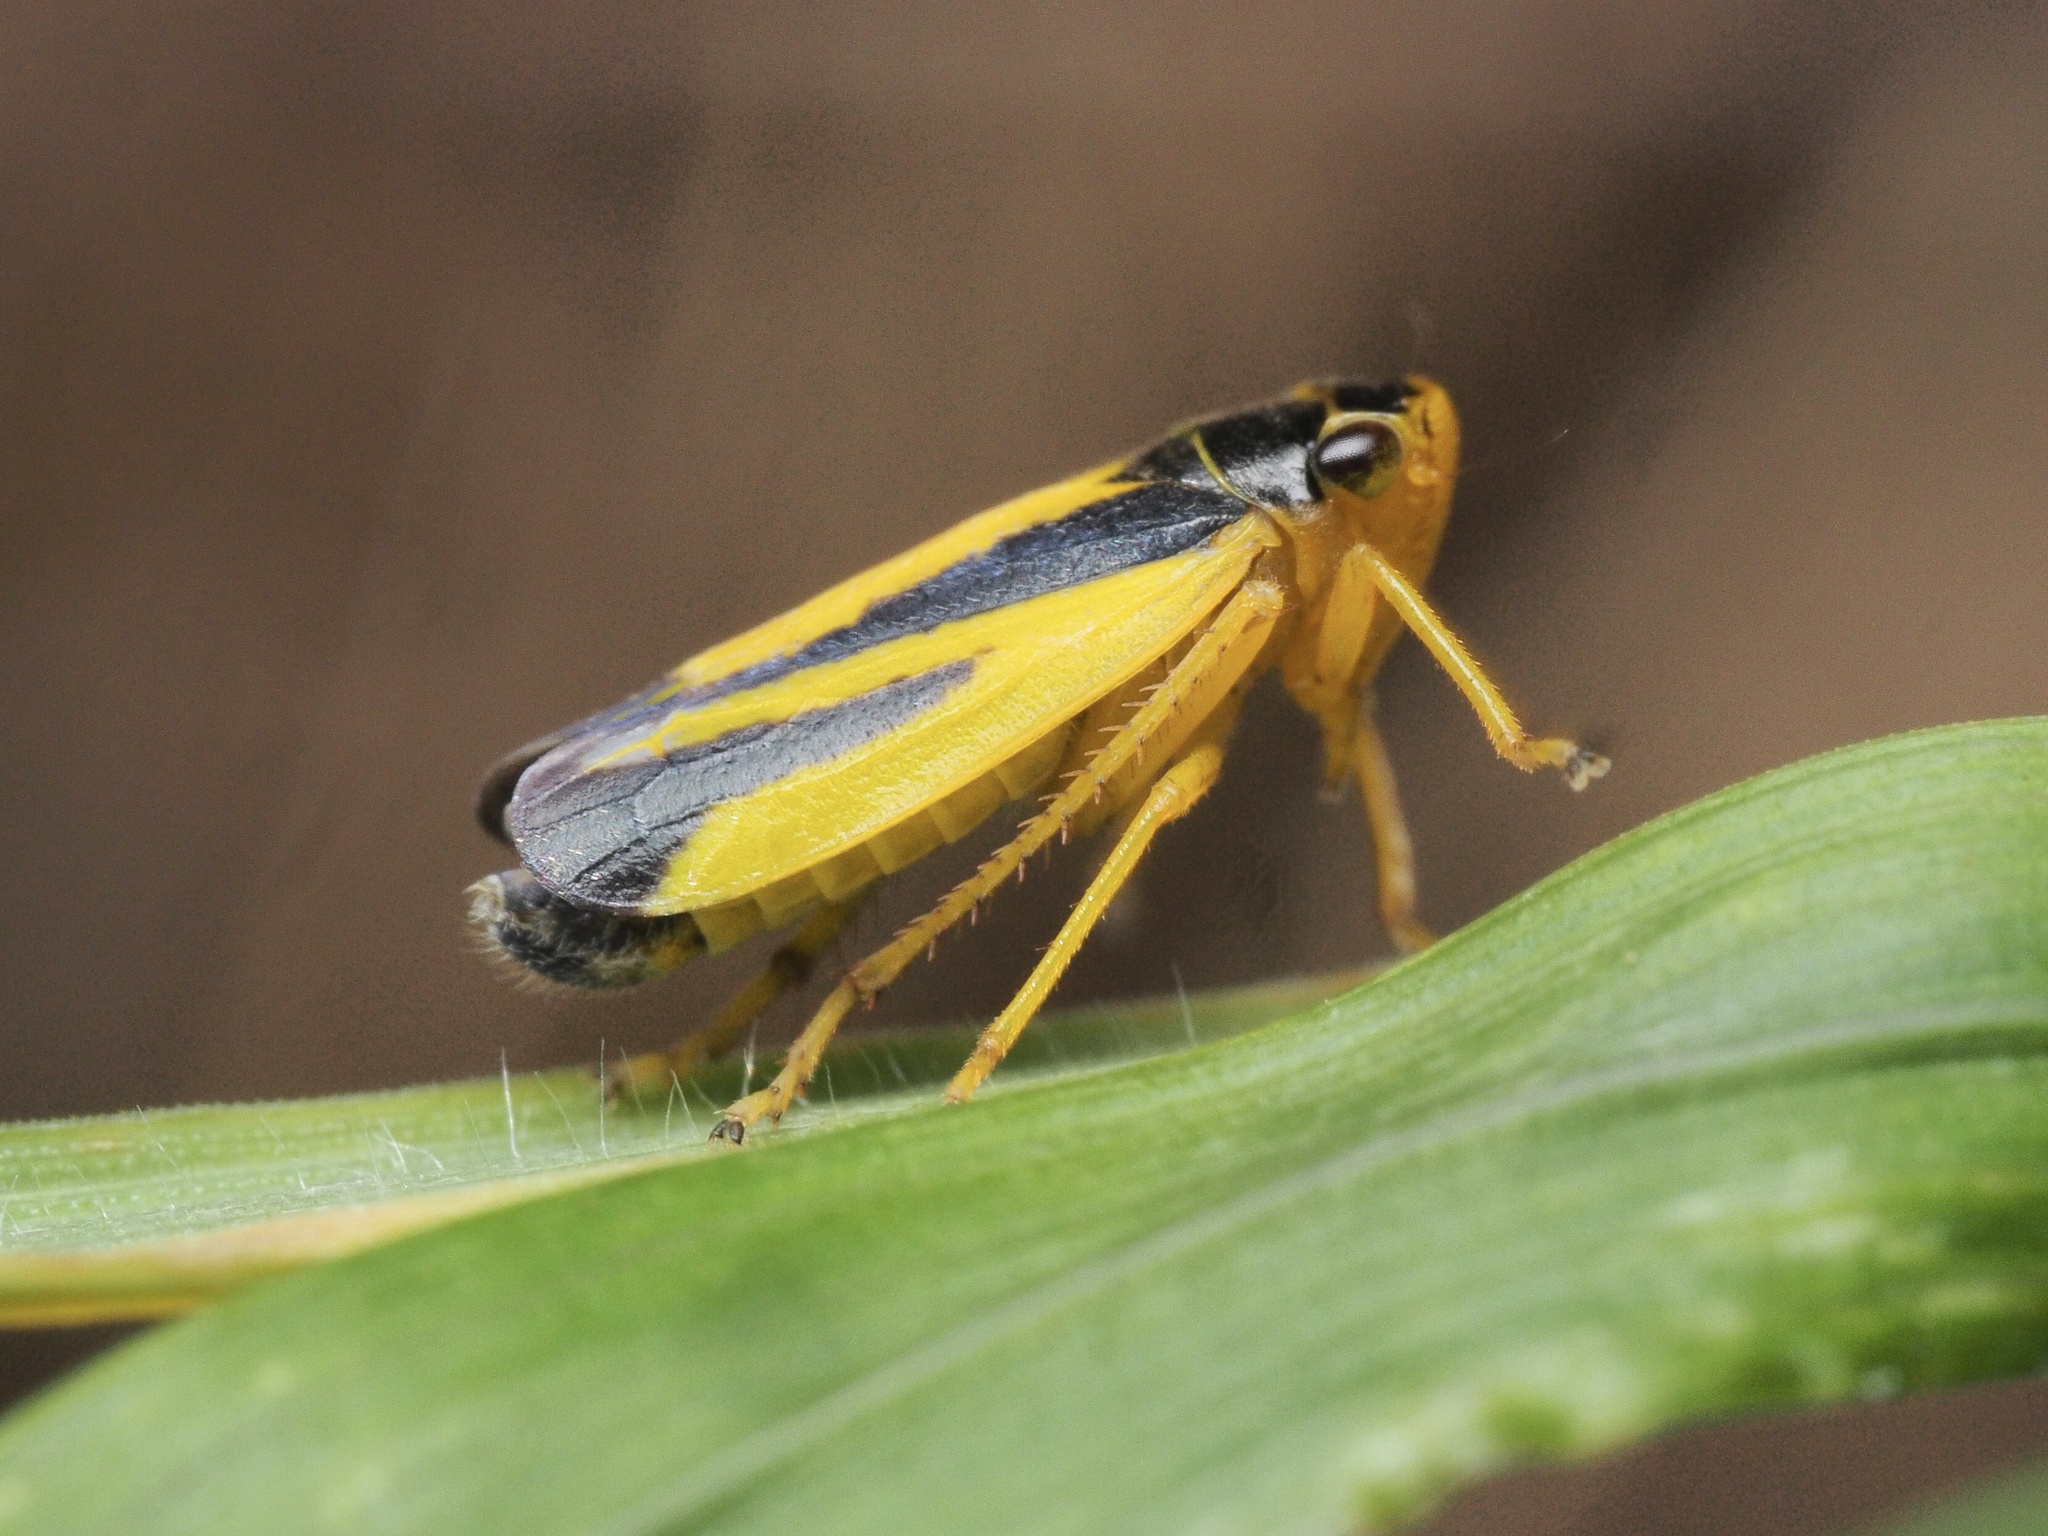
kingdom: Animalia
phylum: Arthropoda
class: Insecta
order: Hemiptera
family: Cicadellidae
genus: Evacanthus
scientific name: Evacanthus interruptus
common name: Leafhopper
